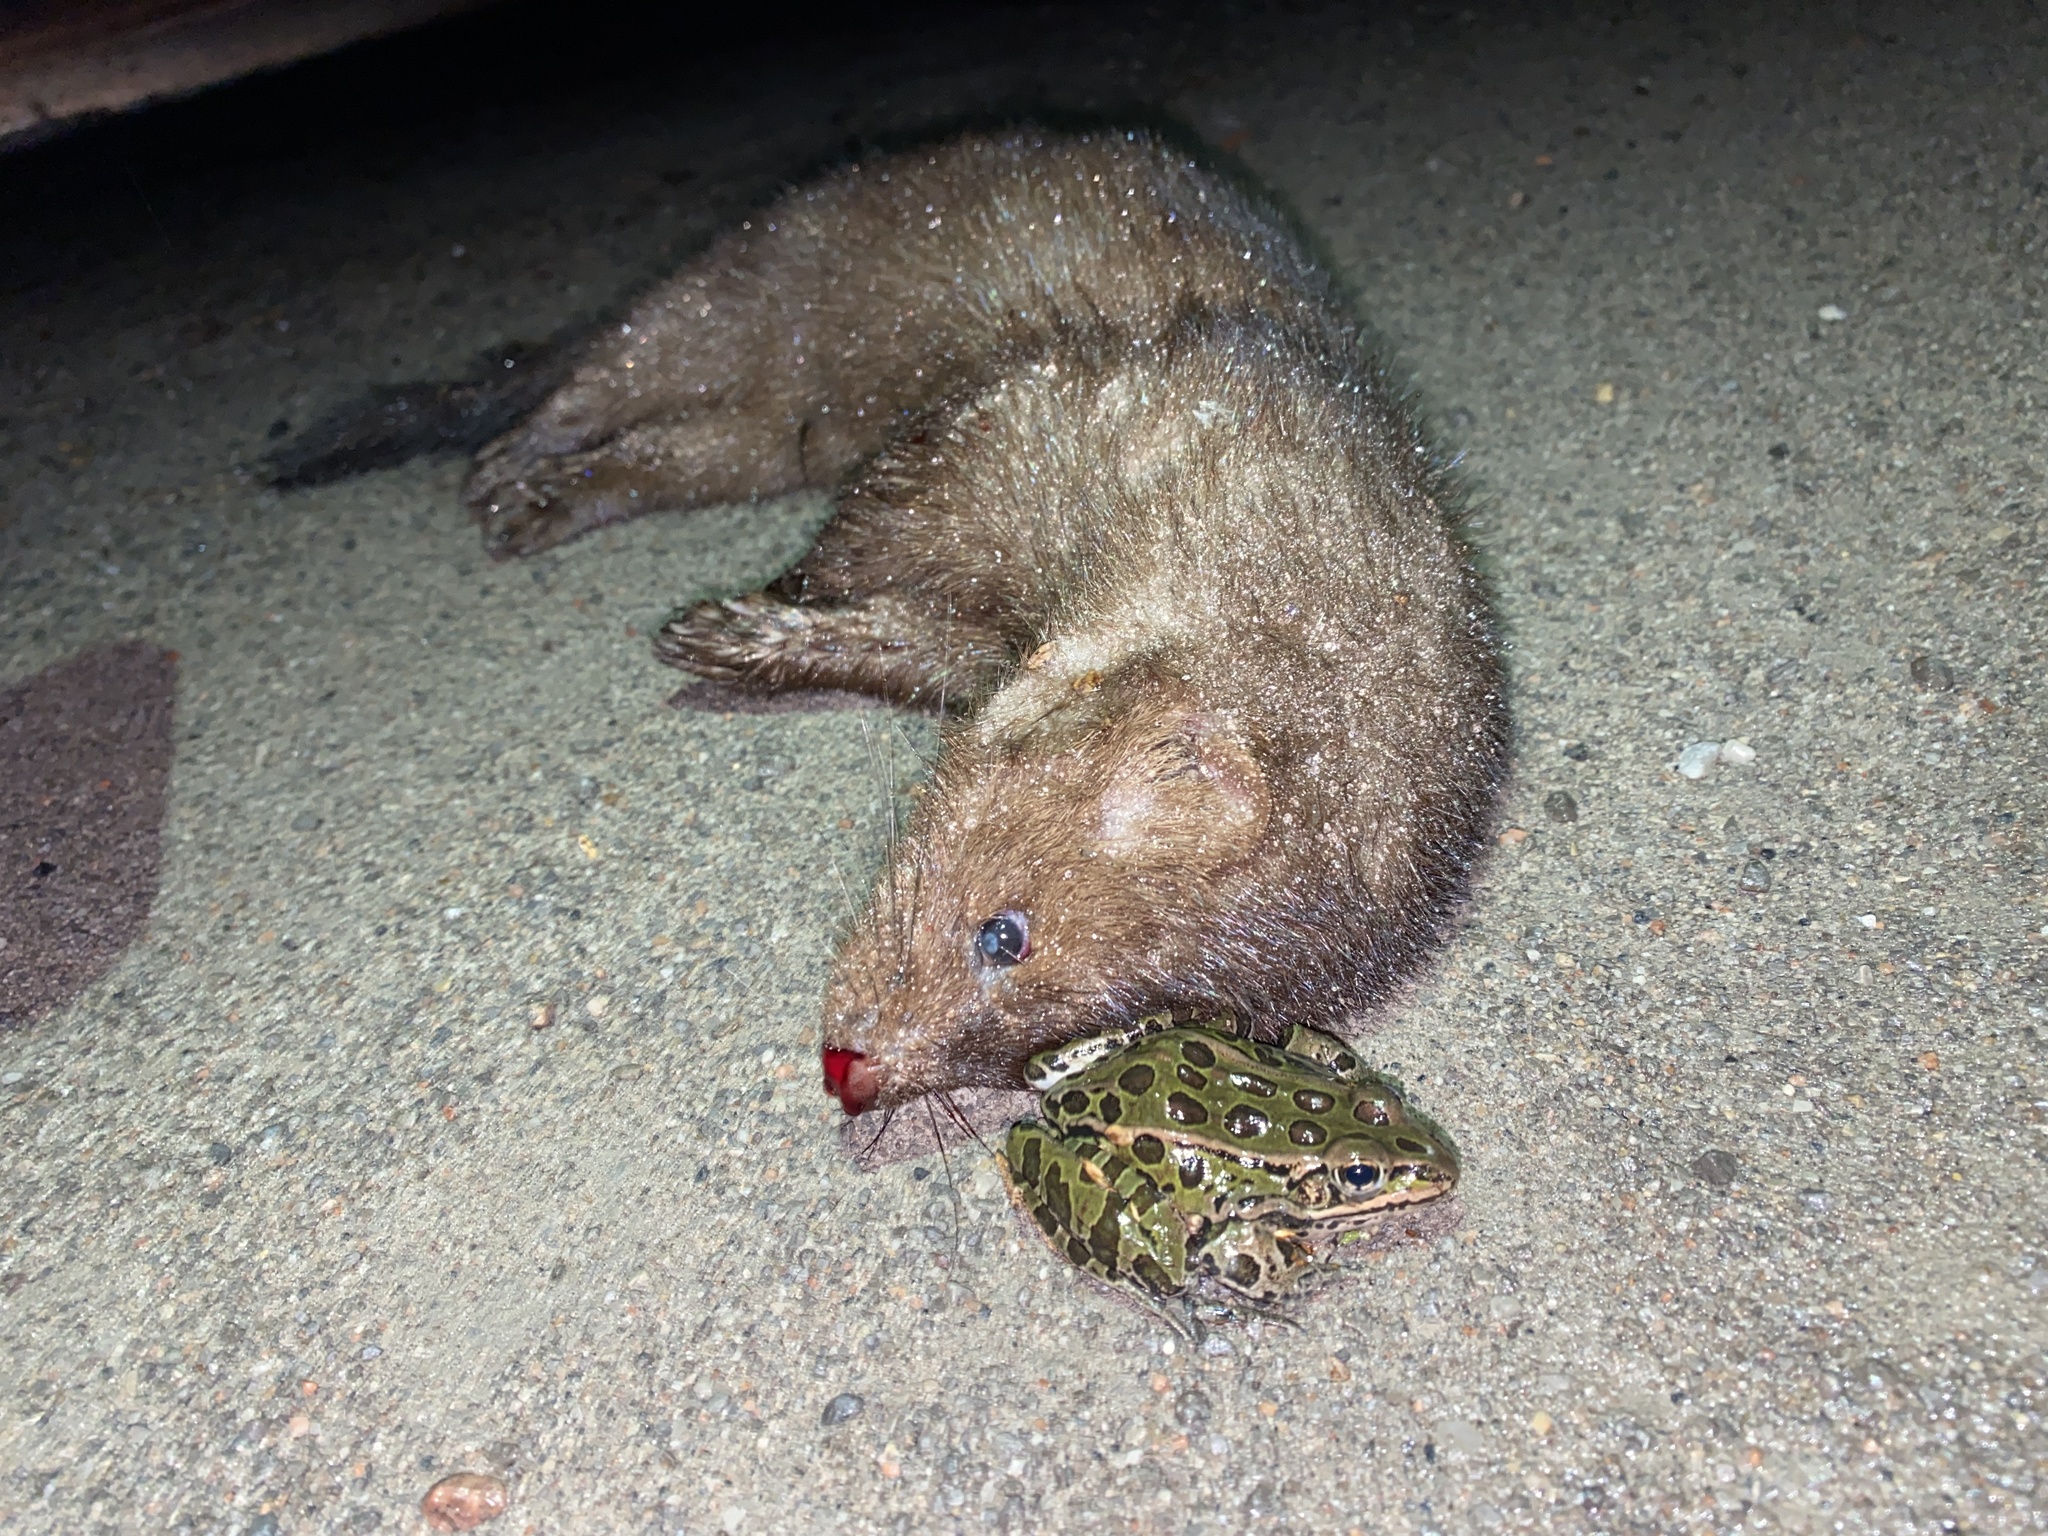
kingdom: Animalia
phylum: Chordata
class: Mammalia
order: Carnivora
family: Mustelidae
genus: Mustela
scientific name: Mustela
